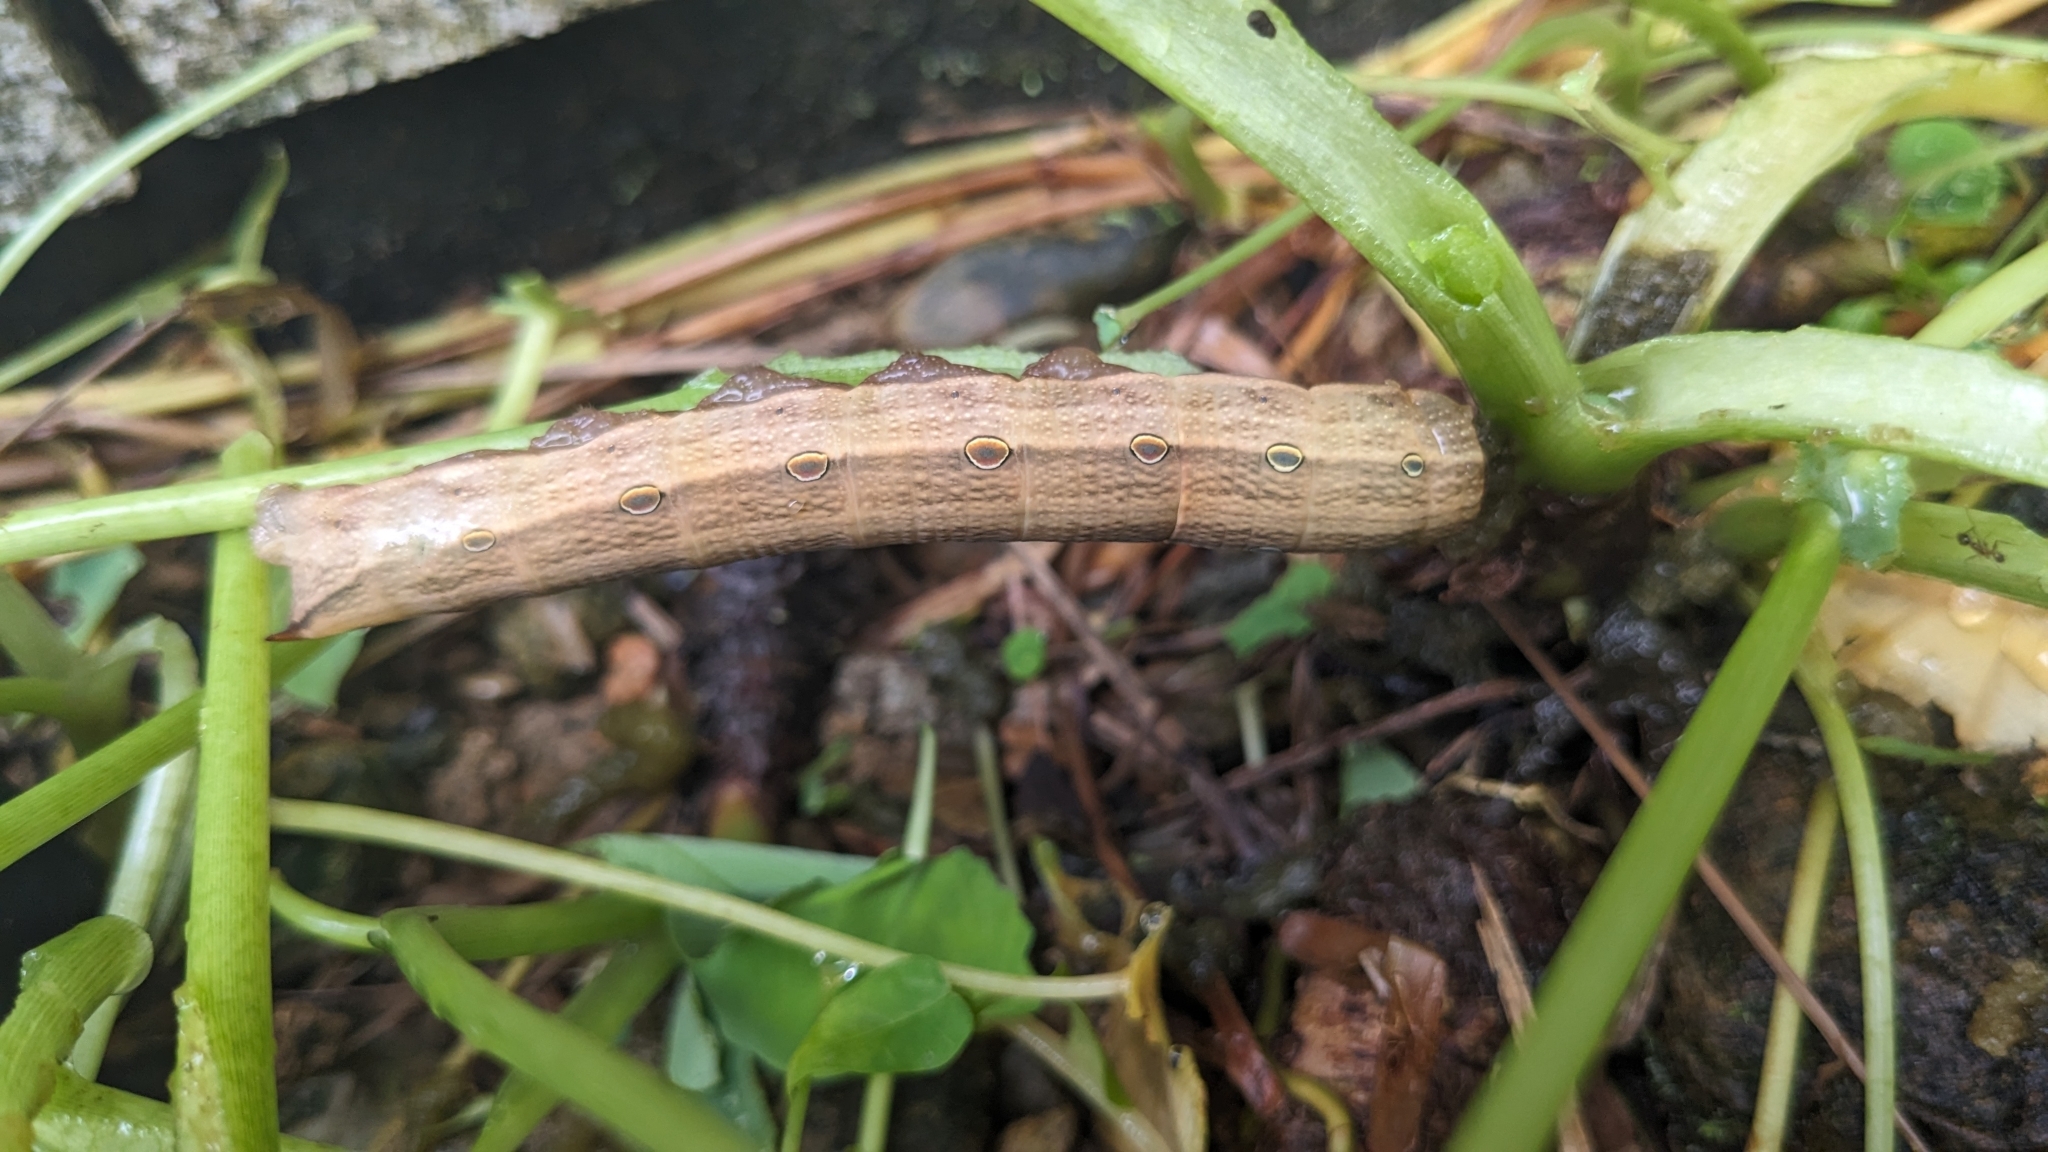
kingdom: Animalia
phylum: Arthropoda
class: Insecta
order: Lepidoptera
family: Sphingidae
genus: Theretra
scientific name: Theretra silhetensis
